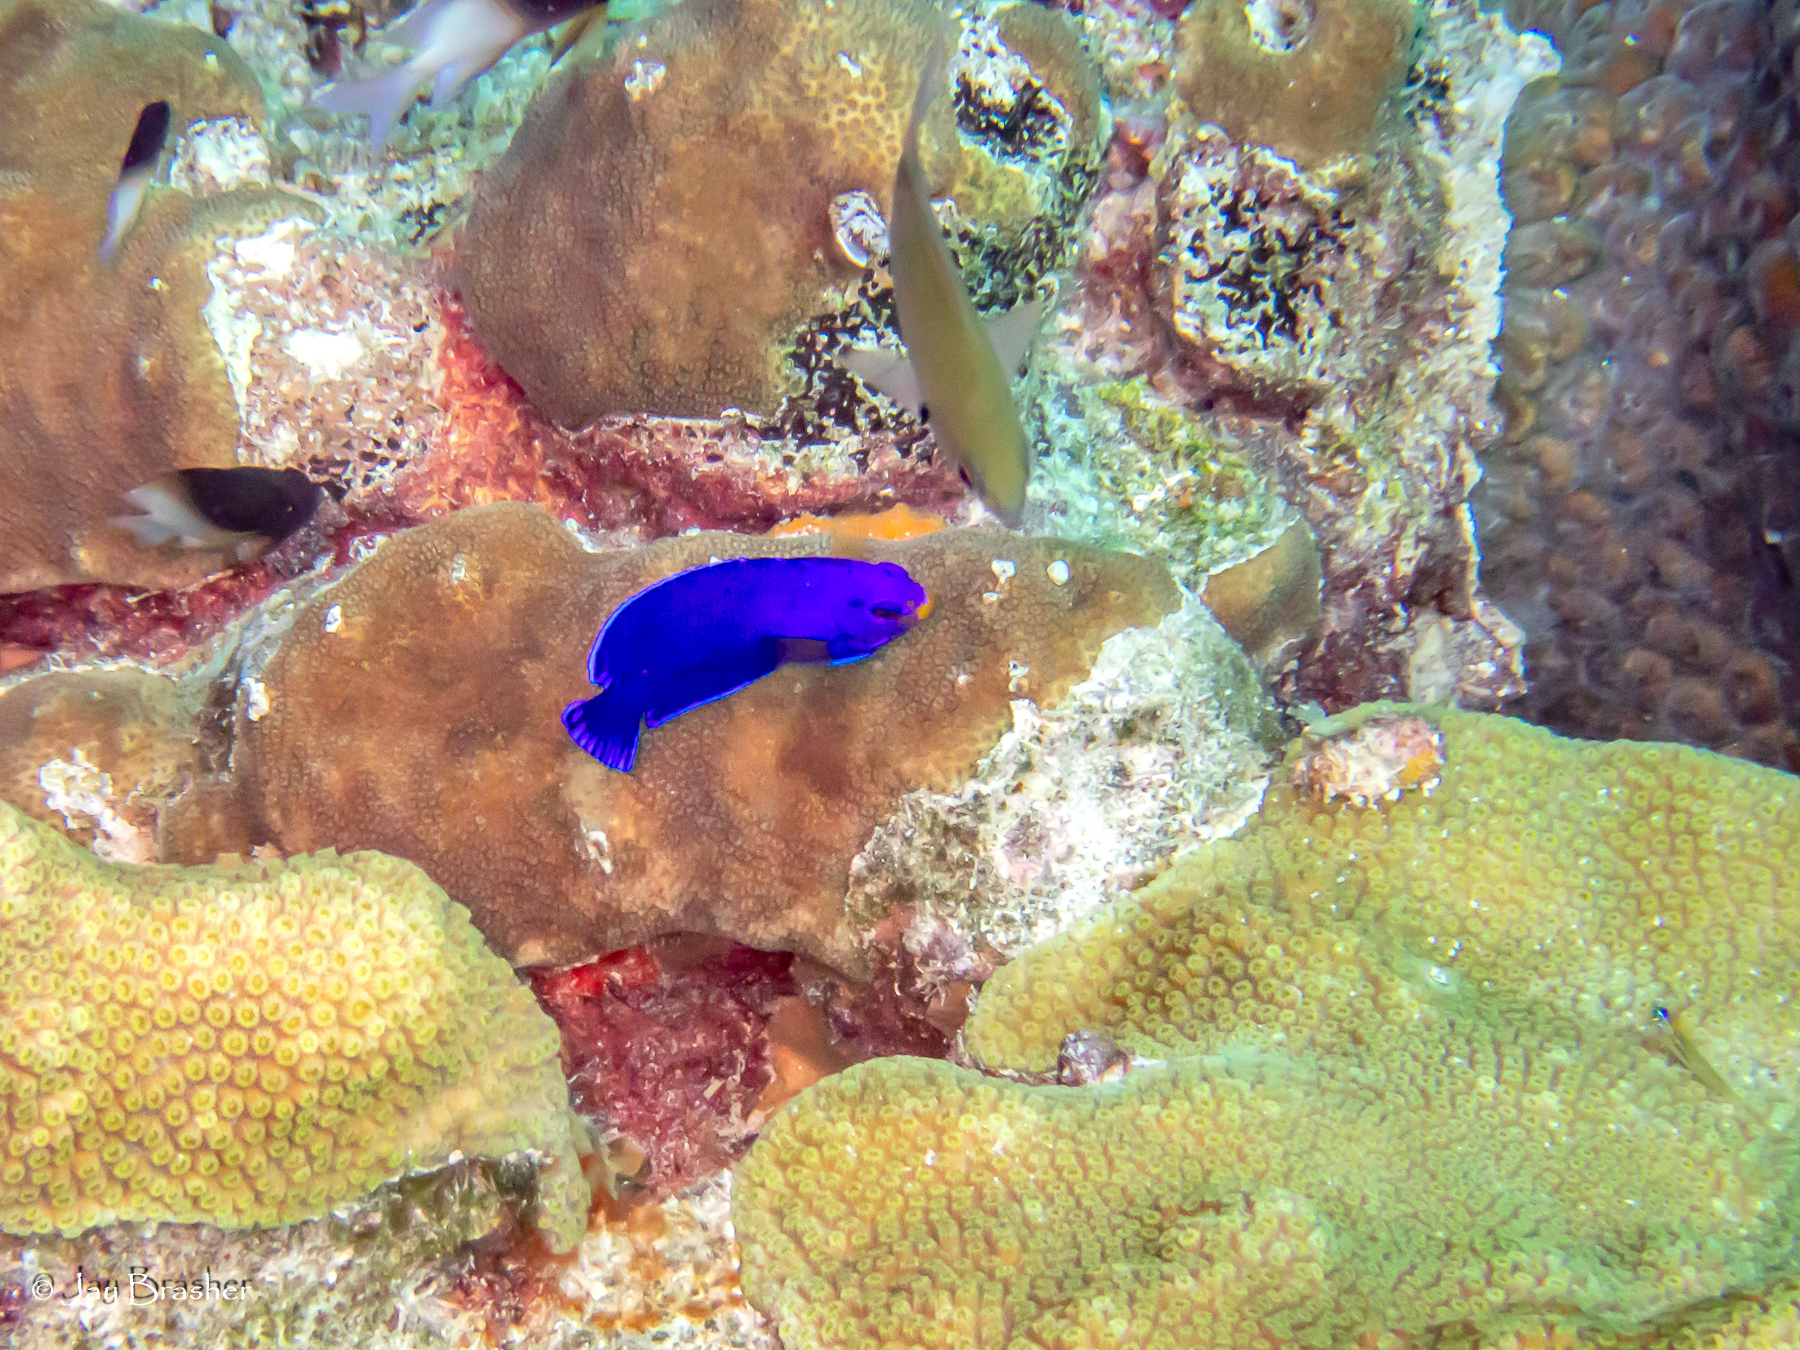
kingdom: Animalia
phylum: Chordata
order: Perciformes
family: Pomacanthidae
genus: Centropyge
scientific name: Centropyge argi
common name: Cherubfish
